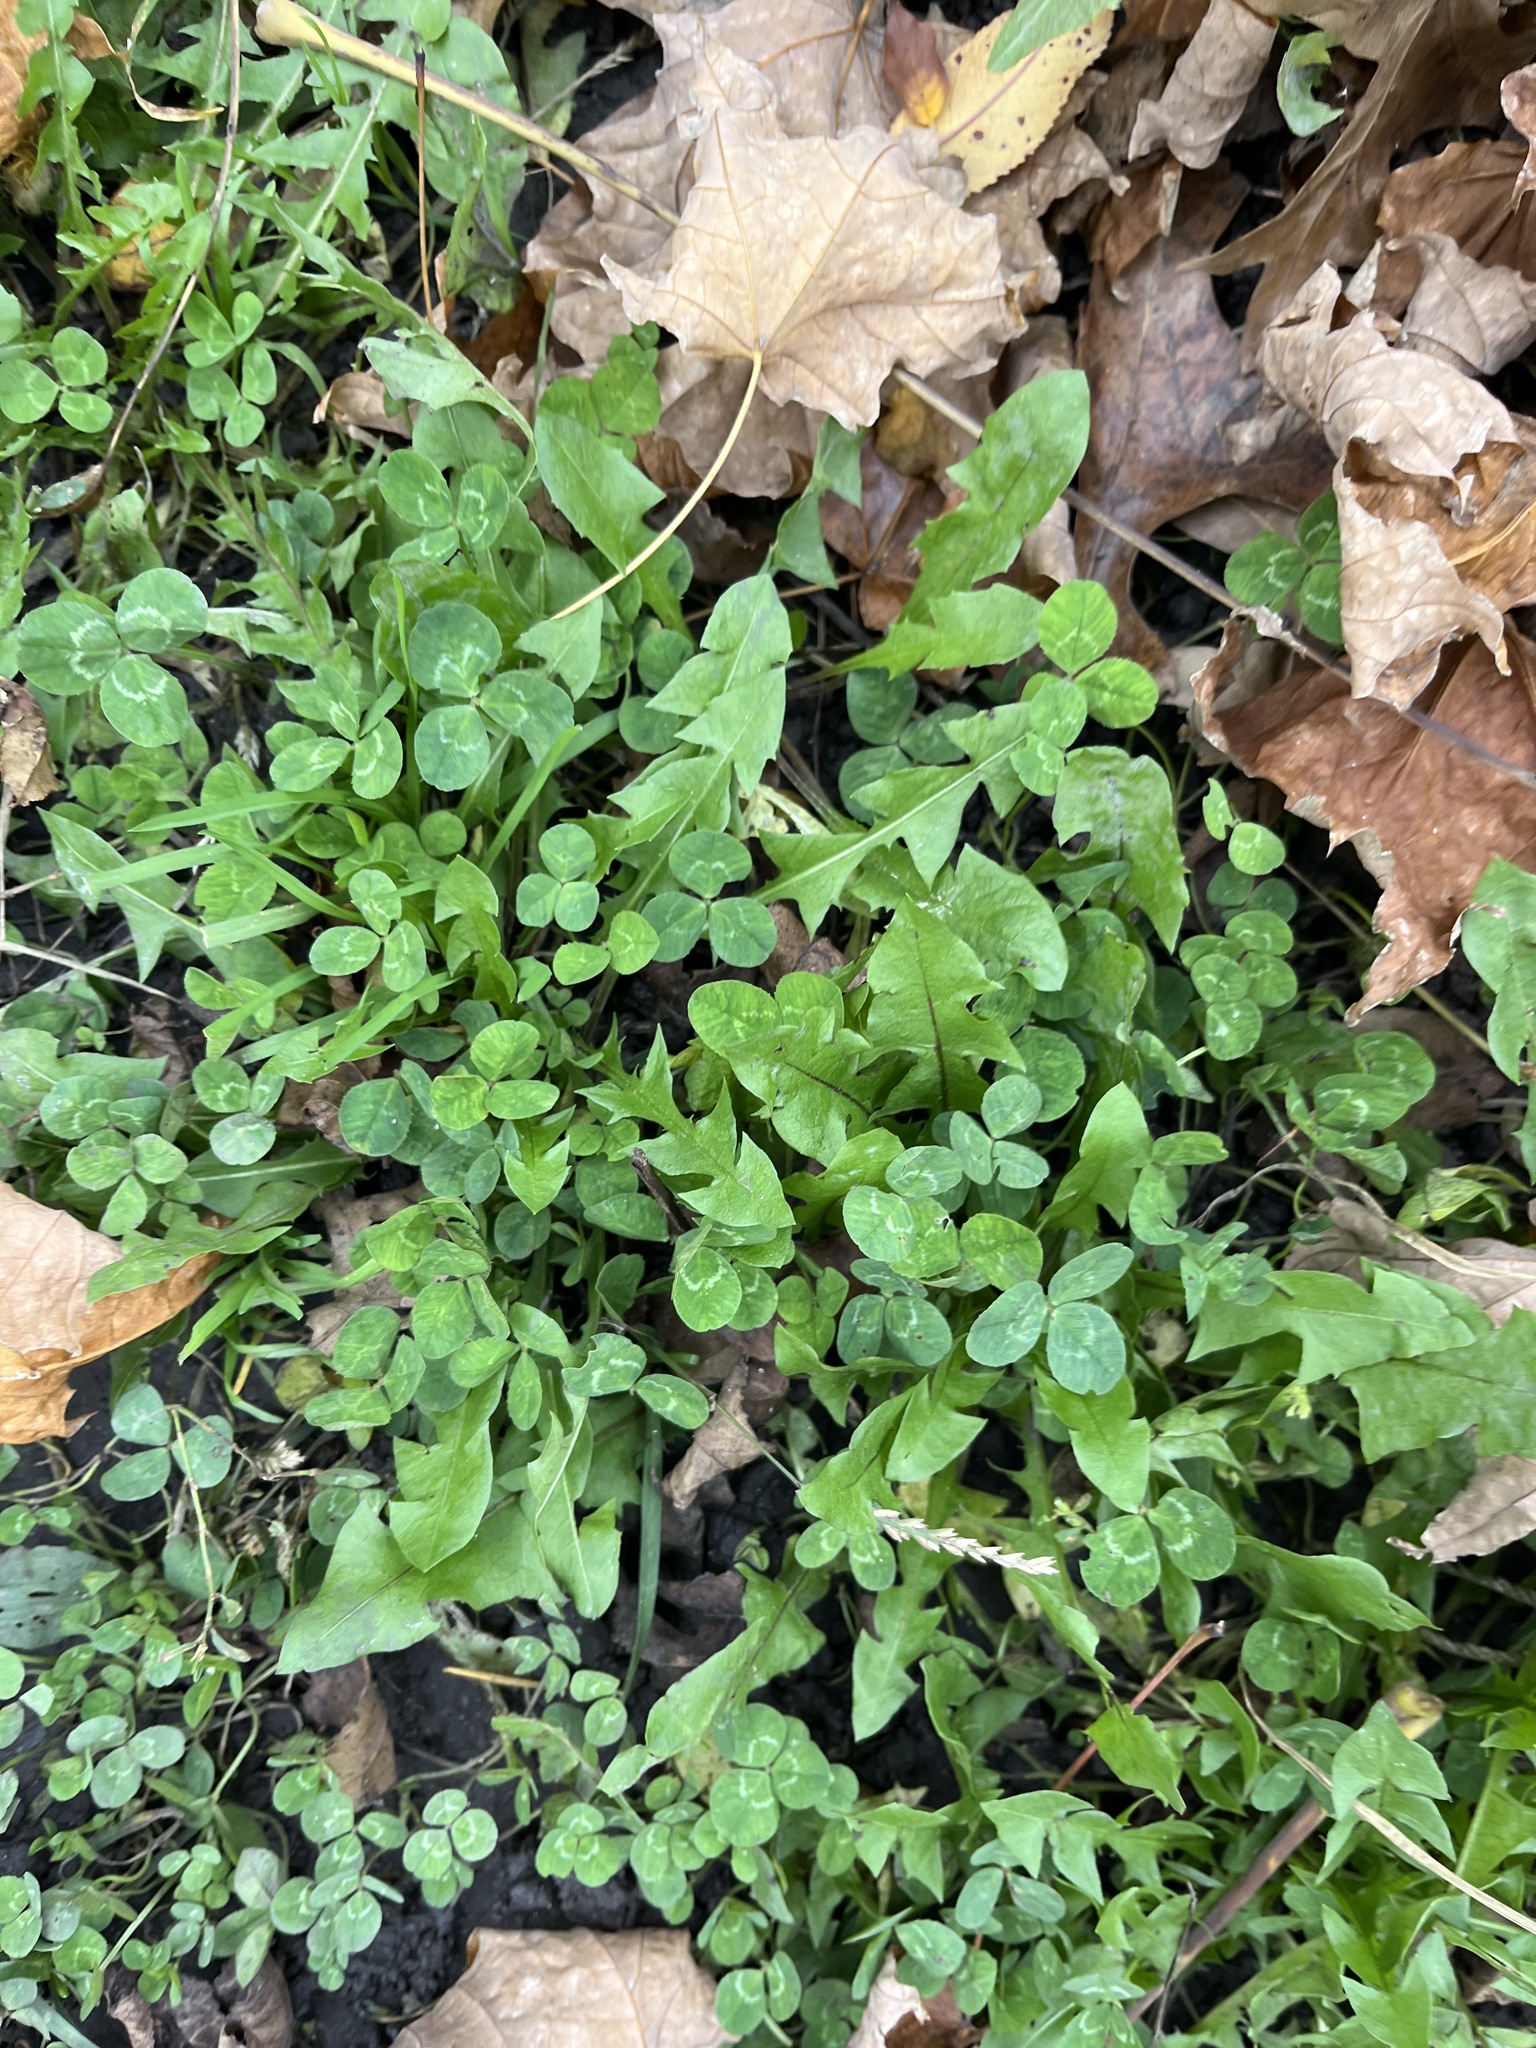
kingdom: Plantae
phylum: Tracheophyta
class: Magnoliopsida
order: Fabales
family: Fabaceae
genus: Trifolium
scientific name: Trifolium repens
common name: White clover
